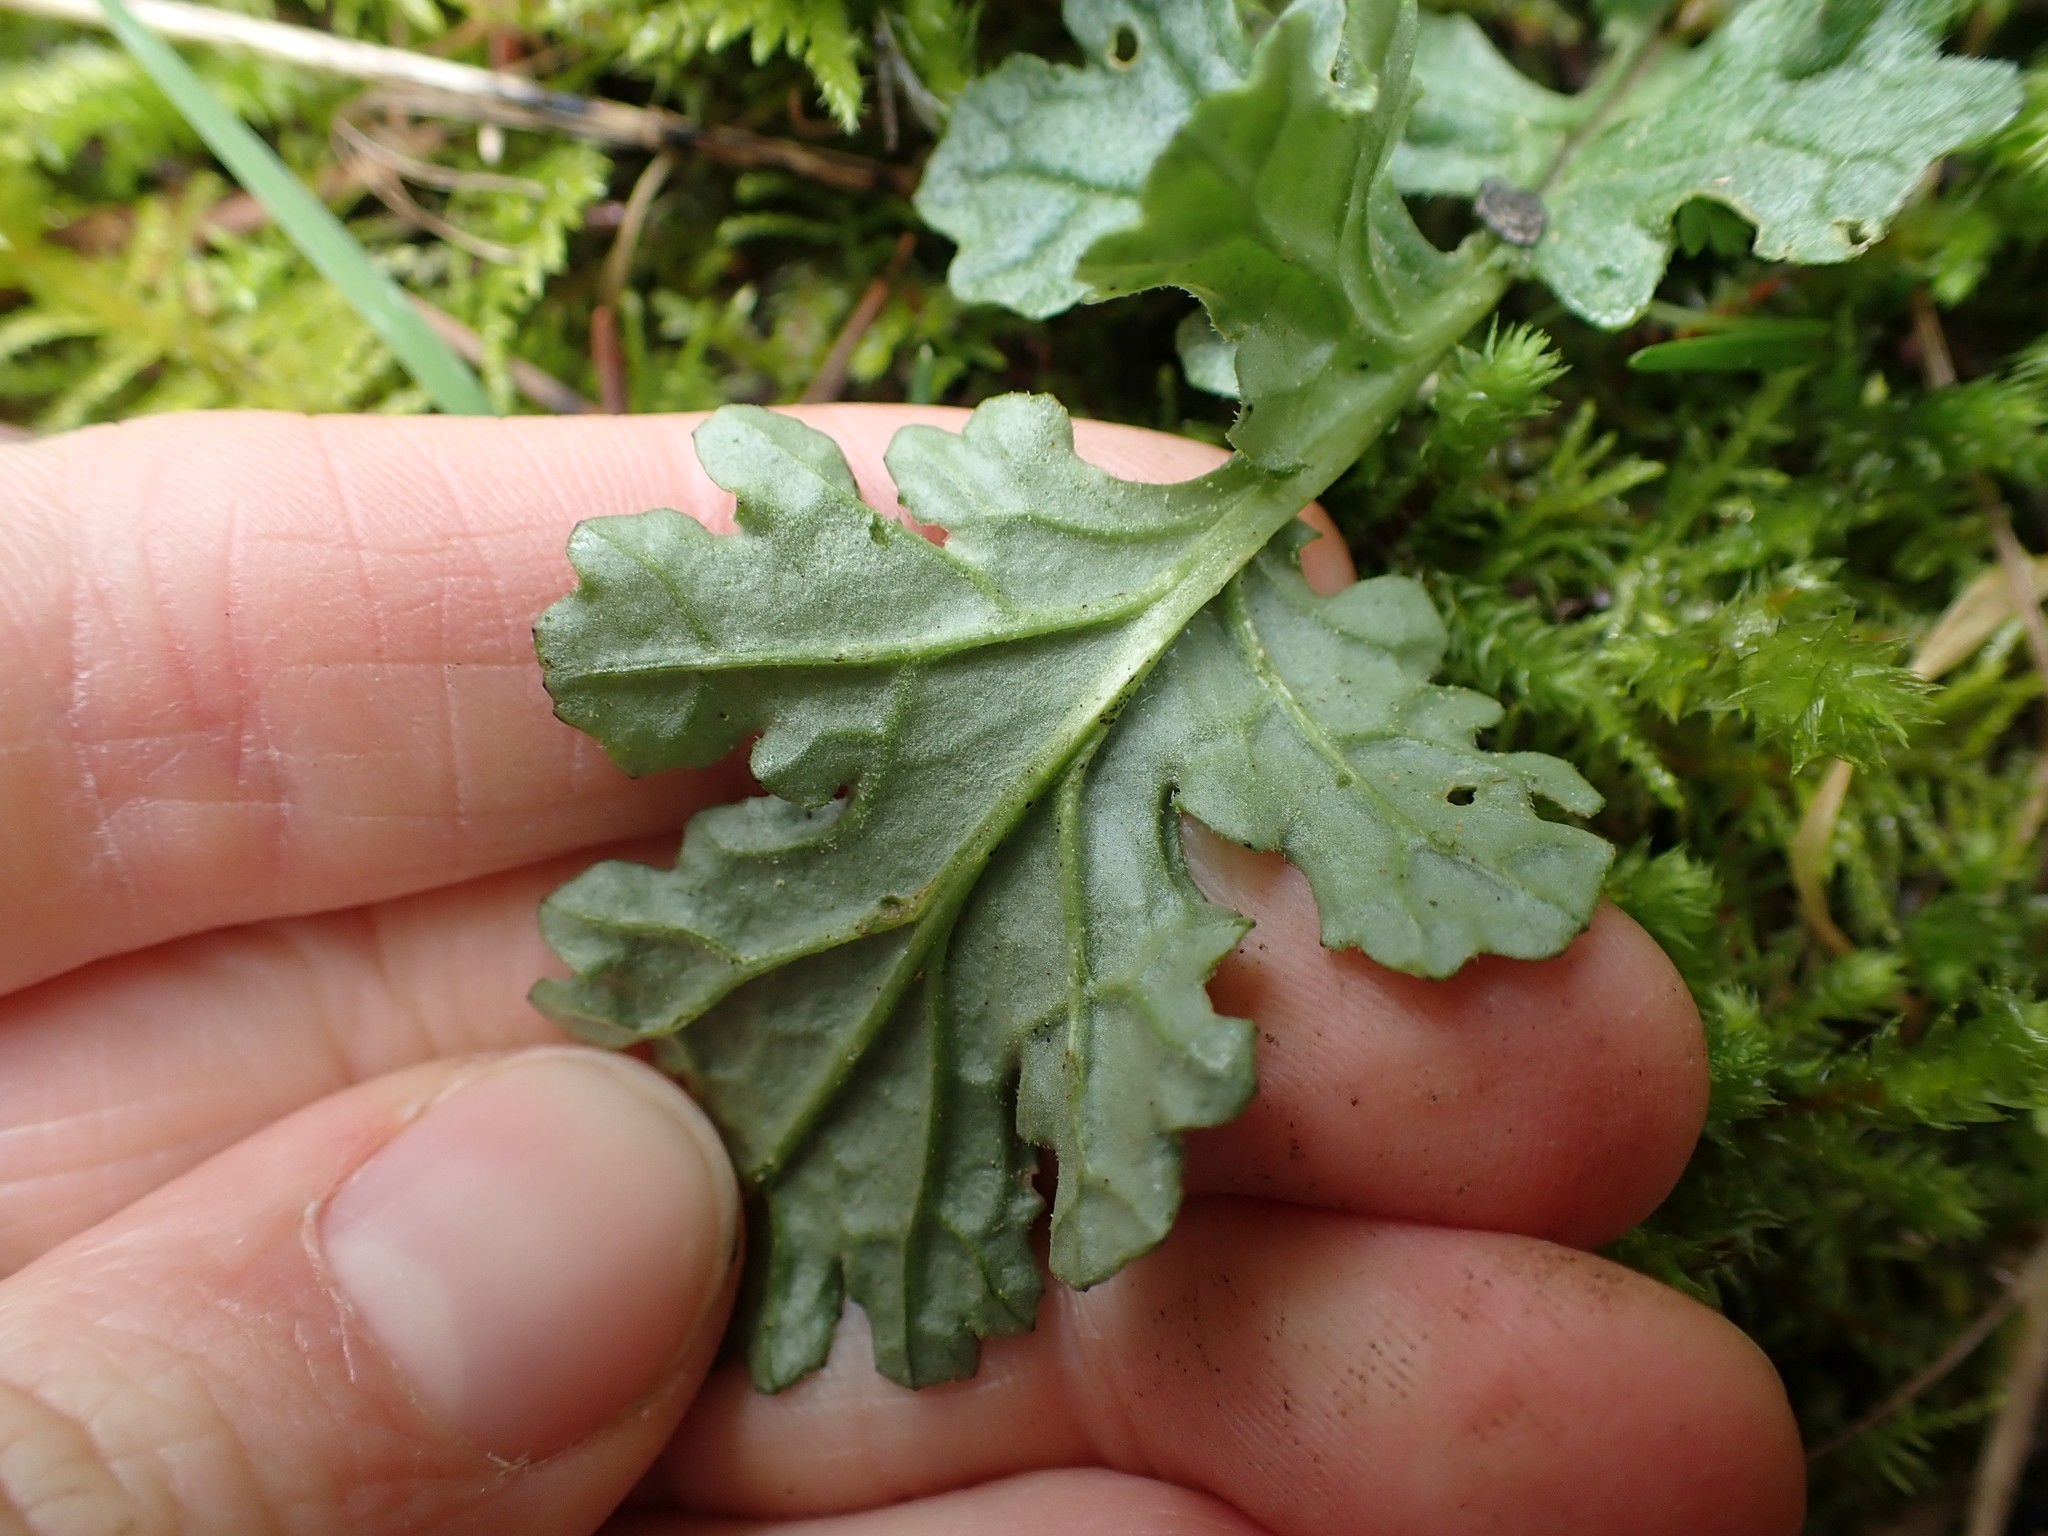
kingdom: Plantae
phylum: Tracheophyta
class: Magnoliopsida
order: Asterales
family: Asteraceae
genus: Jacobaea
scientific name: Jacobaea vulgaris
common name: Stinking willie
